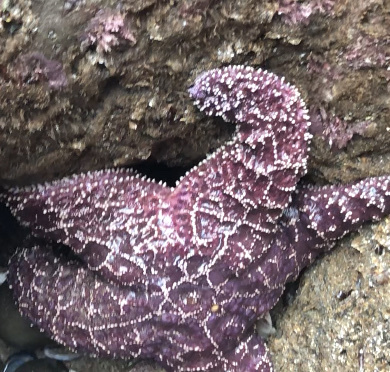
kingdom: Animalia
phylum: Echinodermata
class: Asteroidea
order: Forcipulatida
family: Asteriidae
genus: Pisaster
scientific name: Pisaster ochraceus
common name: Ochre stars
